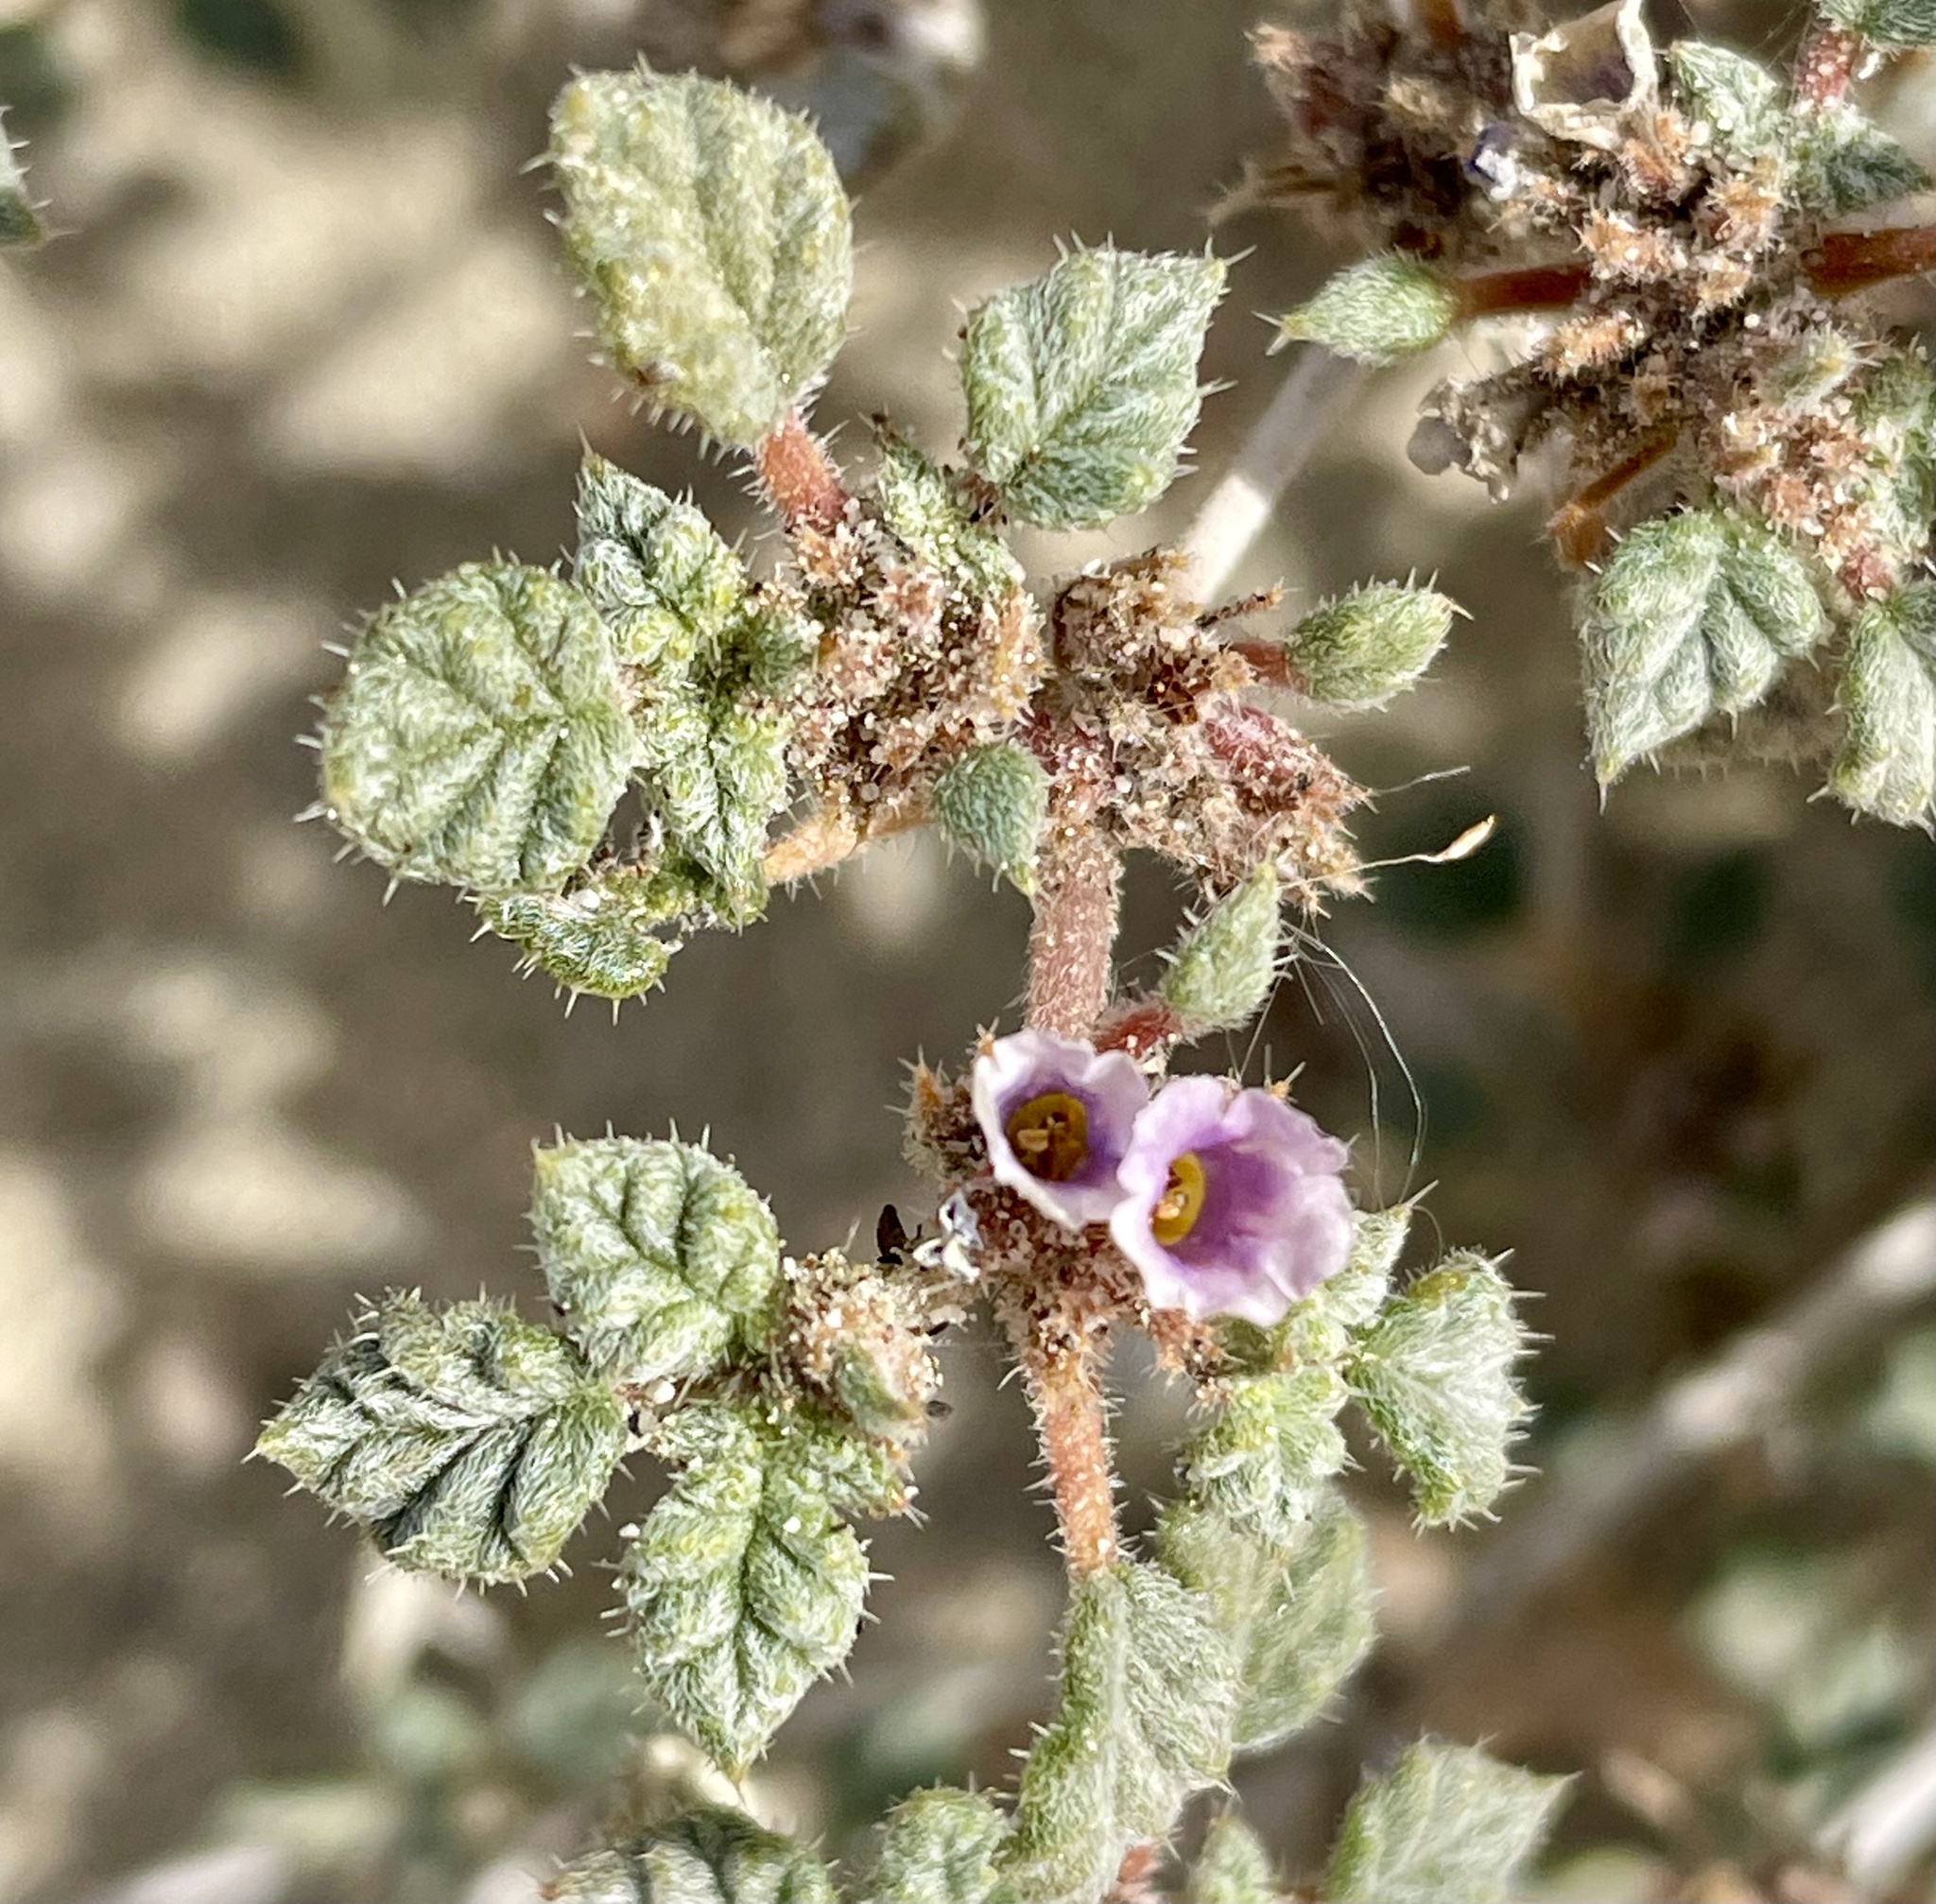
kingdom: Plantae
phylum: Tracheophyta
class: Magnoliopsida
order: Boraginales
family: Ehretiaceae
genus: Tiquilia
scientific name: Tiquilia palmeri
